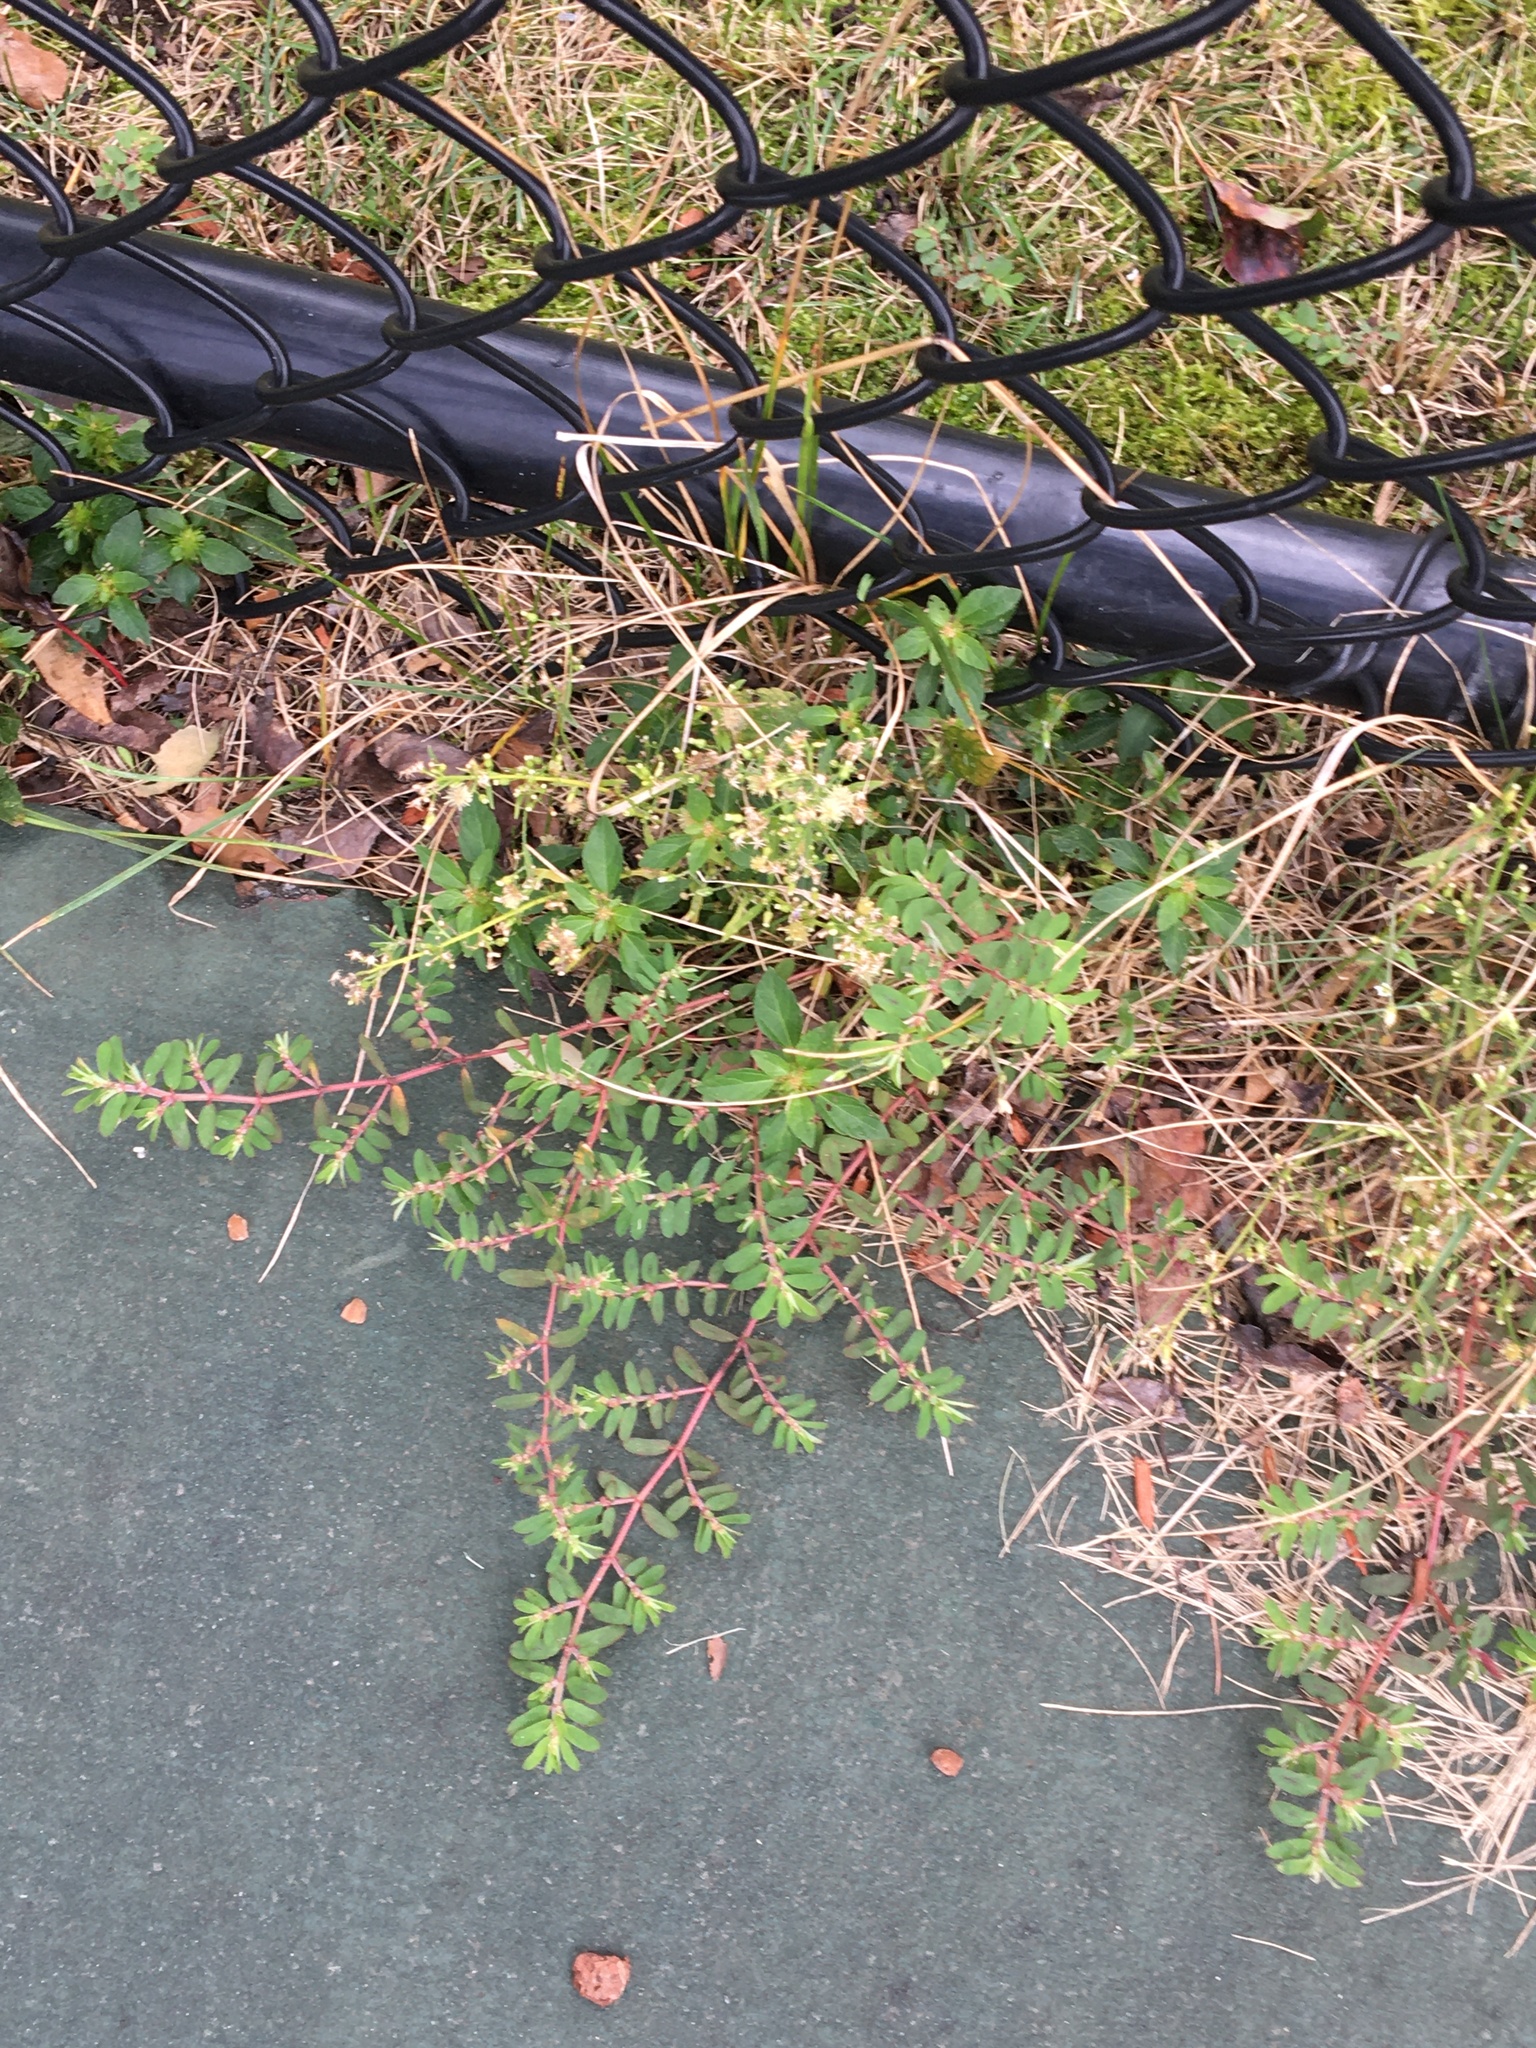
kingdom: Plantae
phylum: Tracheophyta
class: Magnoliopsida
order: Malpighiales
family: Euphorbiaceae
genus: Euphorbia
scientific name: Euphorbia maculata
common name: Spotted spurge
